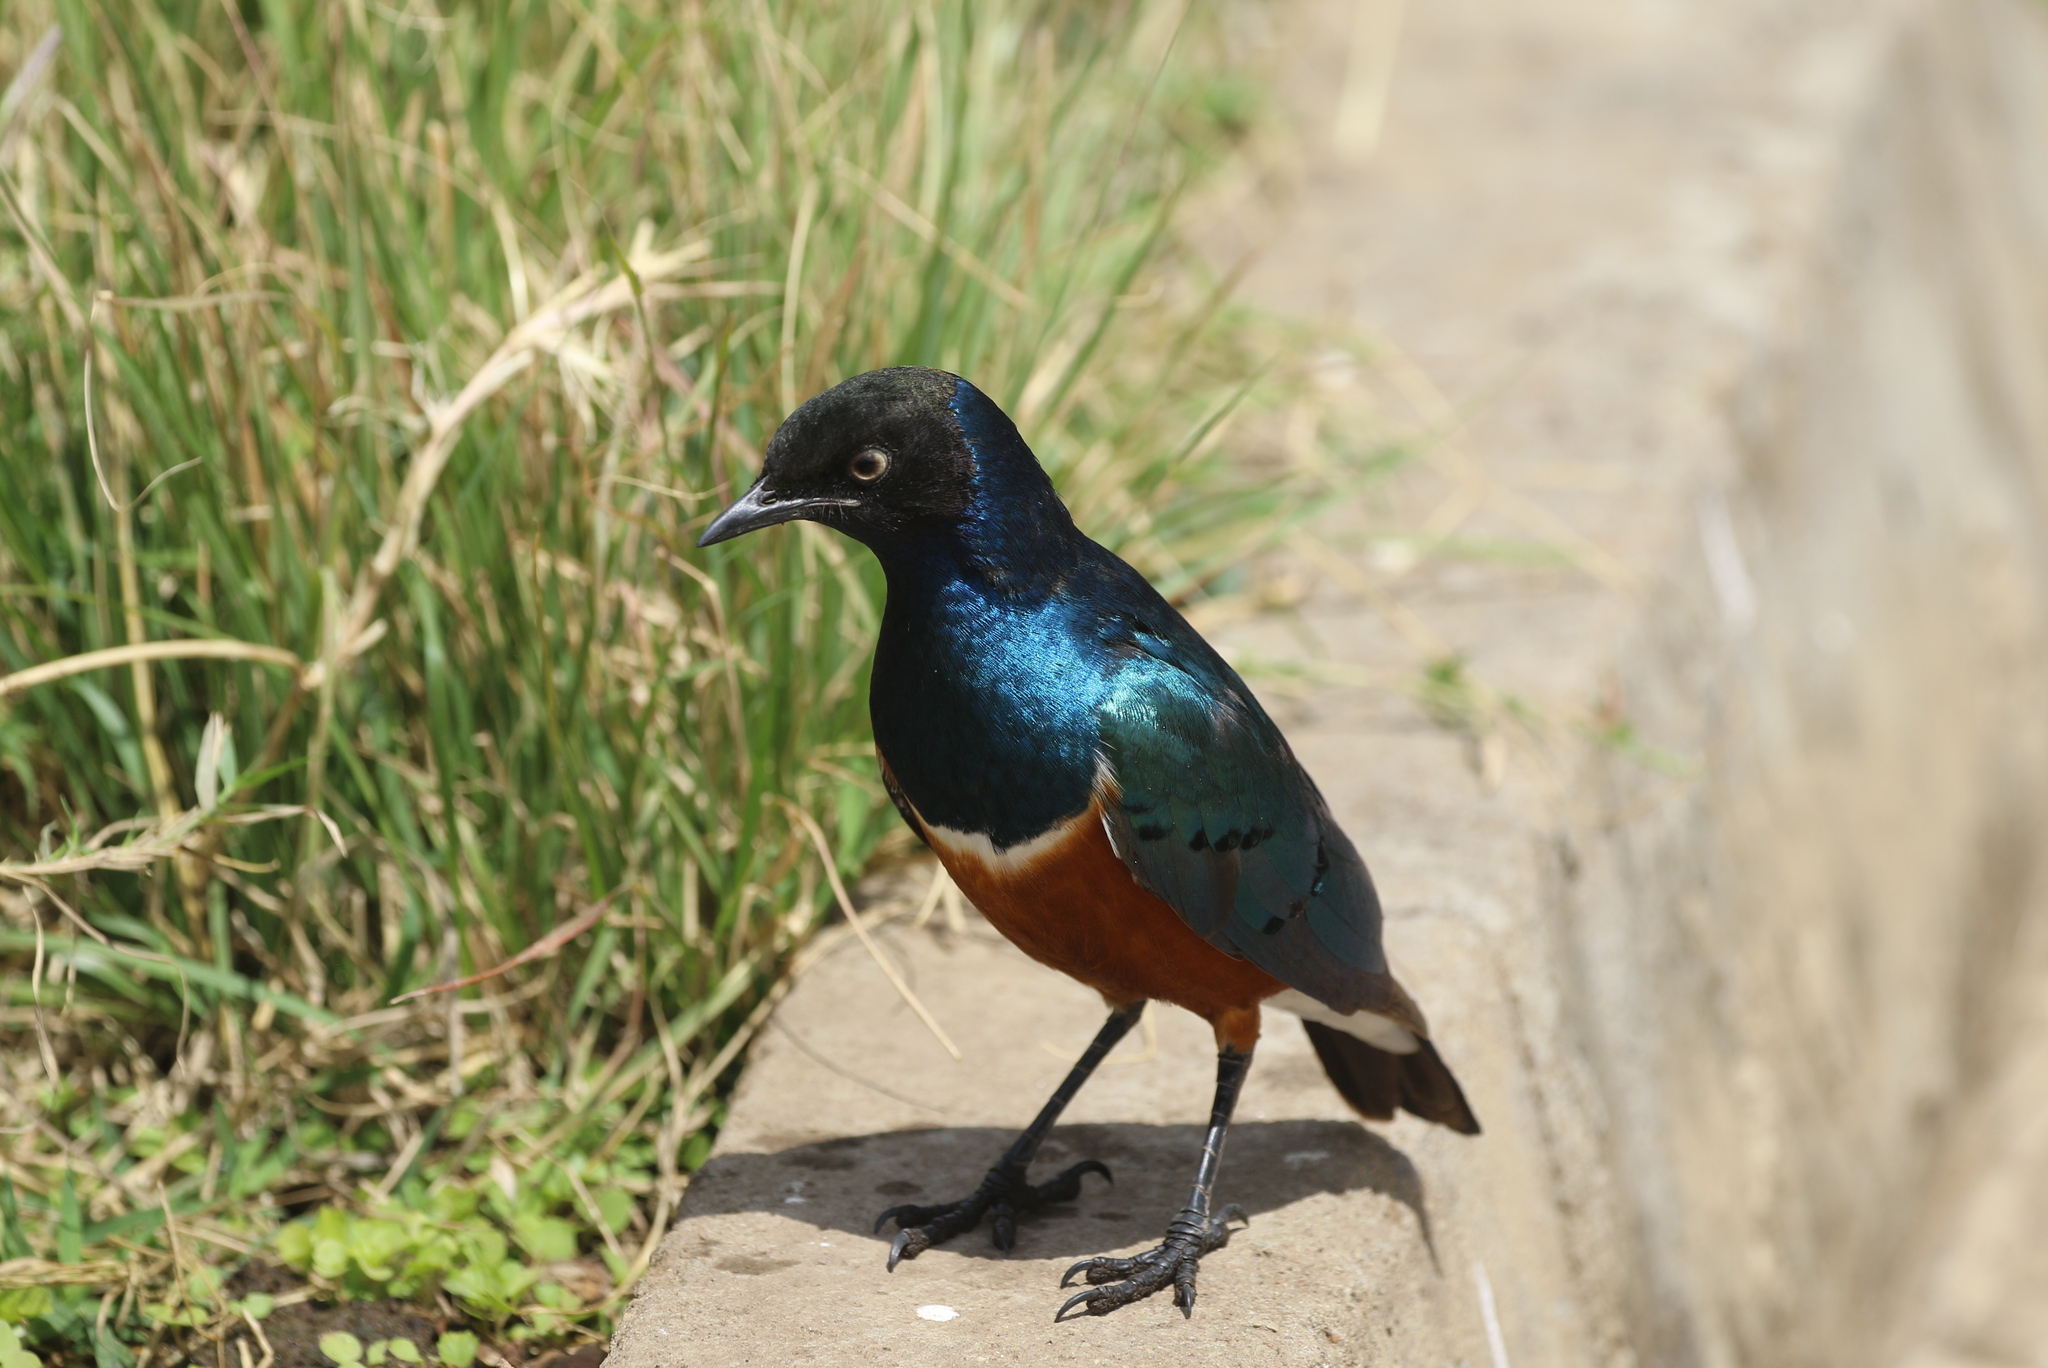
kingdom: Animalia
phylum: Chordata
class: Aves
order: Passeriformes
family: Sturnidae
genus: Lamprotornis
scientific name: Lamprotornis superbus
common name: Superb starling
